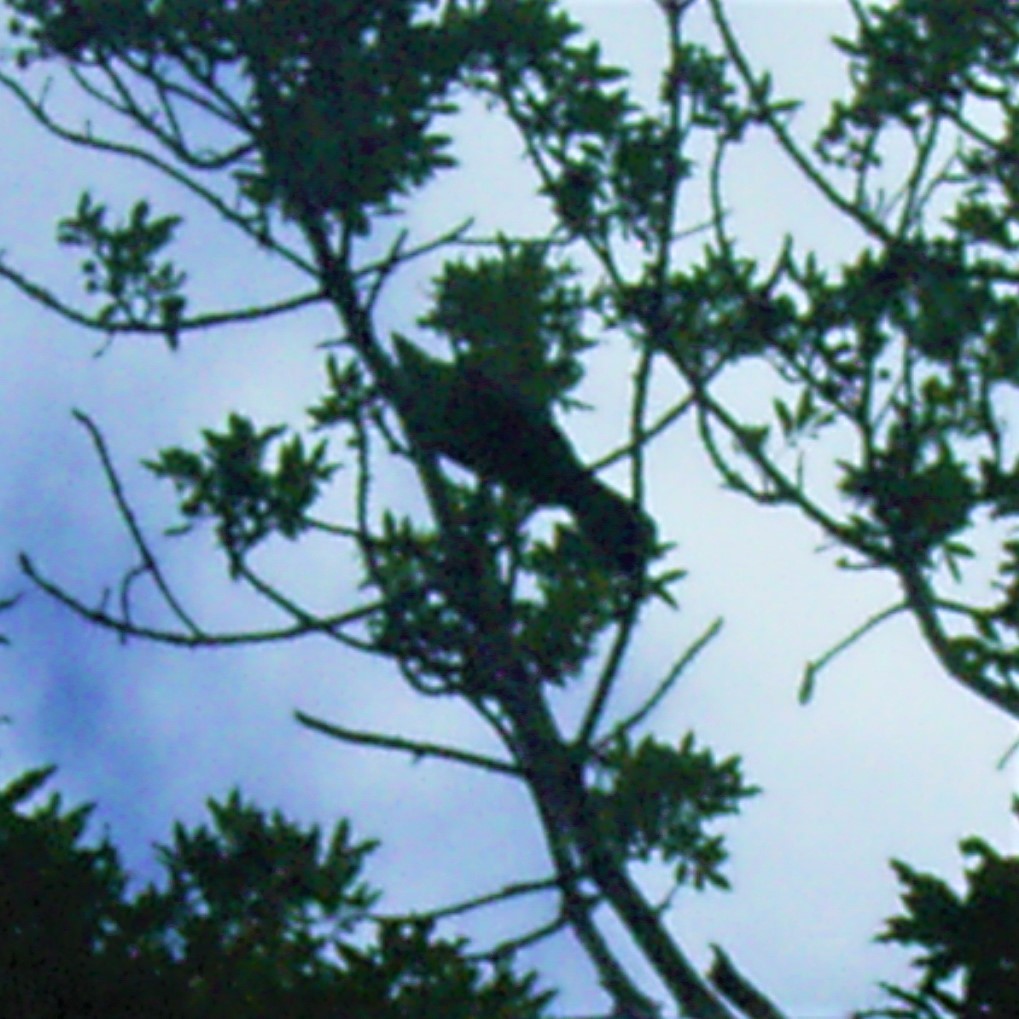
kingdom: Animalia
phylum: Chordata
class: Aves
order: Musophagiformes
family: Musophagidae
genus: Tauraco
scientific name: Tauraco corythaix
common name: Knysna turaco
